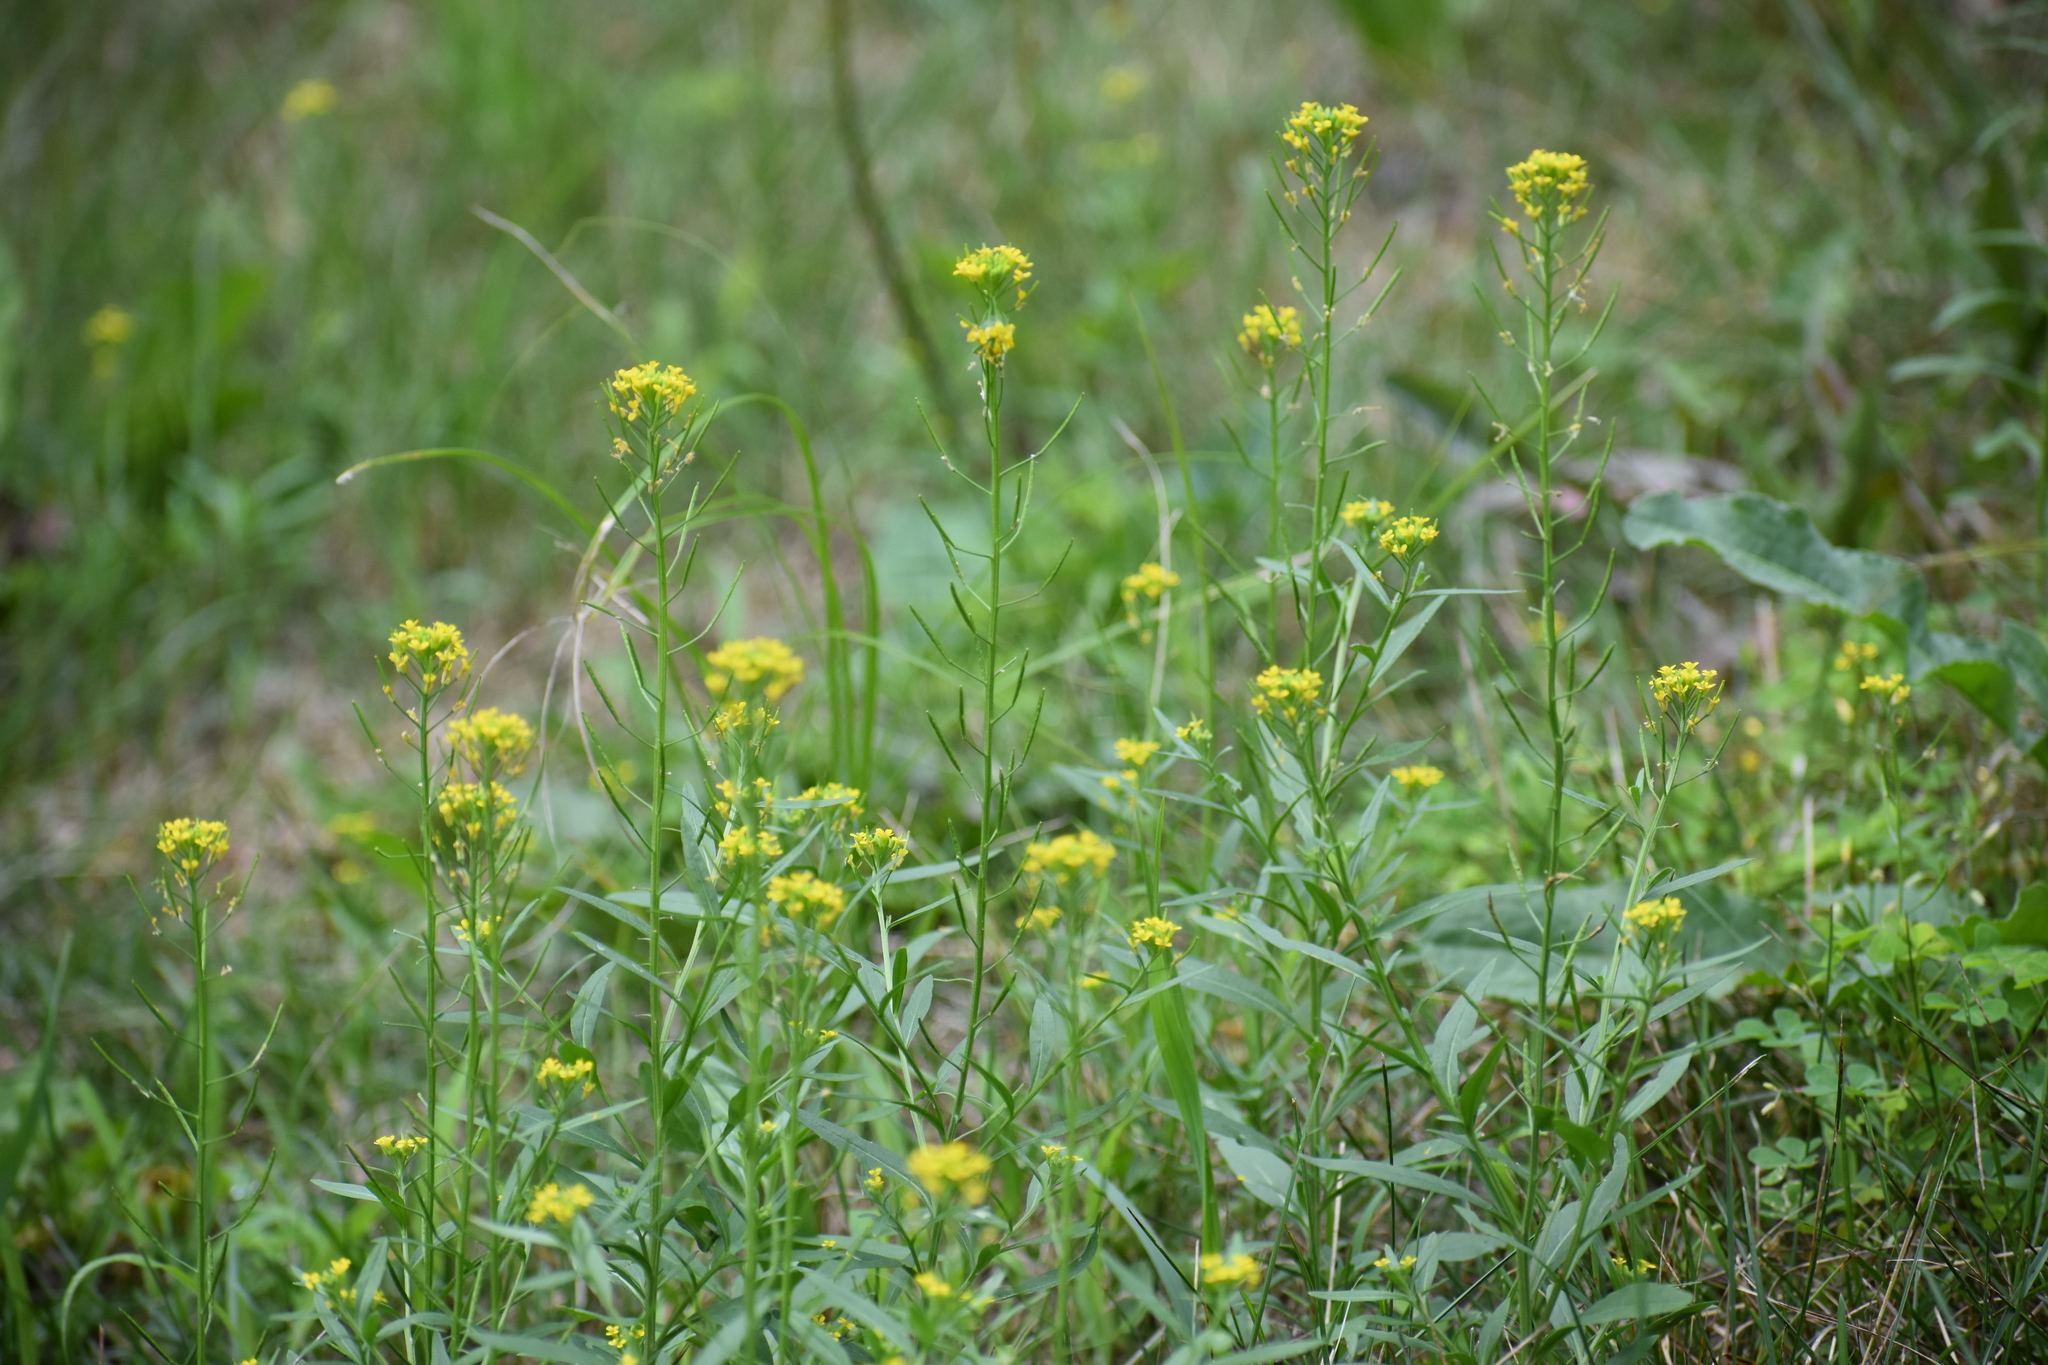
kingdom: Plantae
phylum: Tracheophyta
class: Magnoliopsida
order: Brassicales
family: Brassicaceae
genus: Erysimum
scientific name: Erysimum cheiranthoides
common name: Treacle mustard
